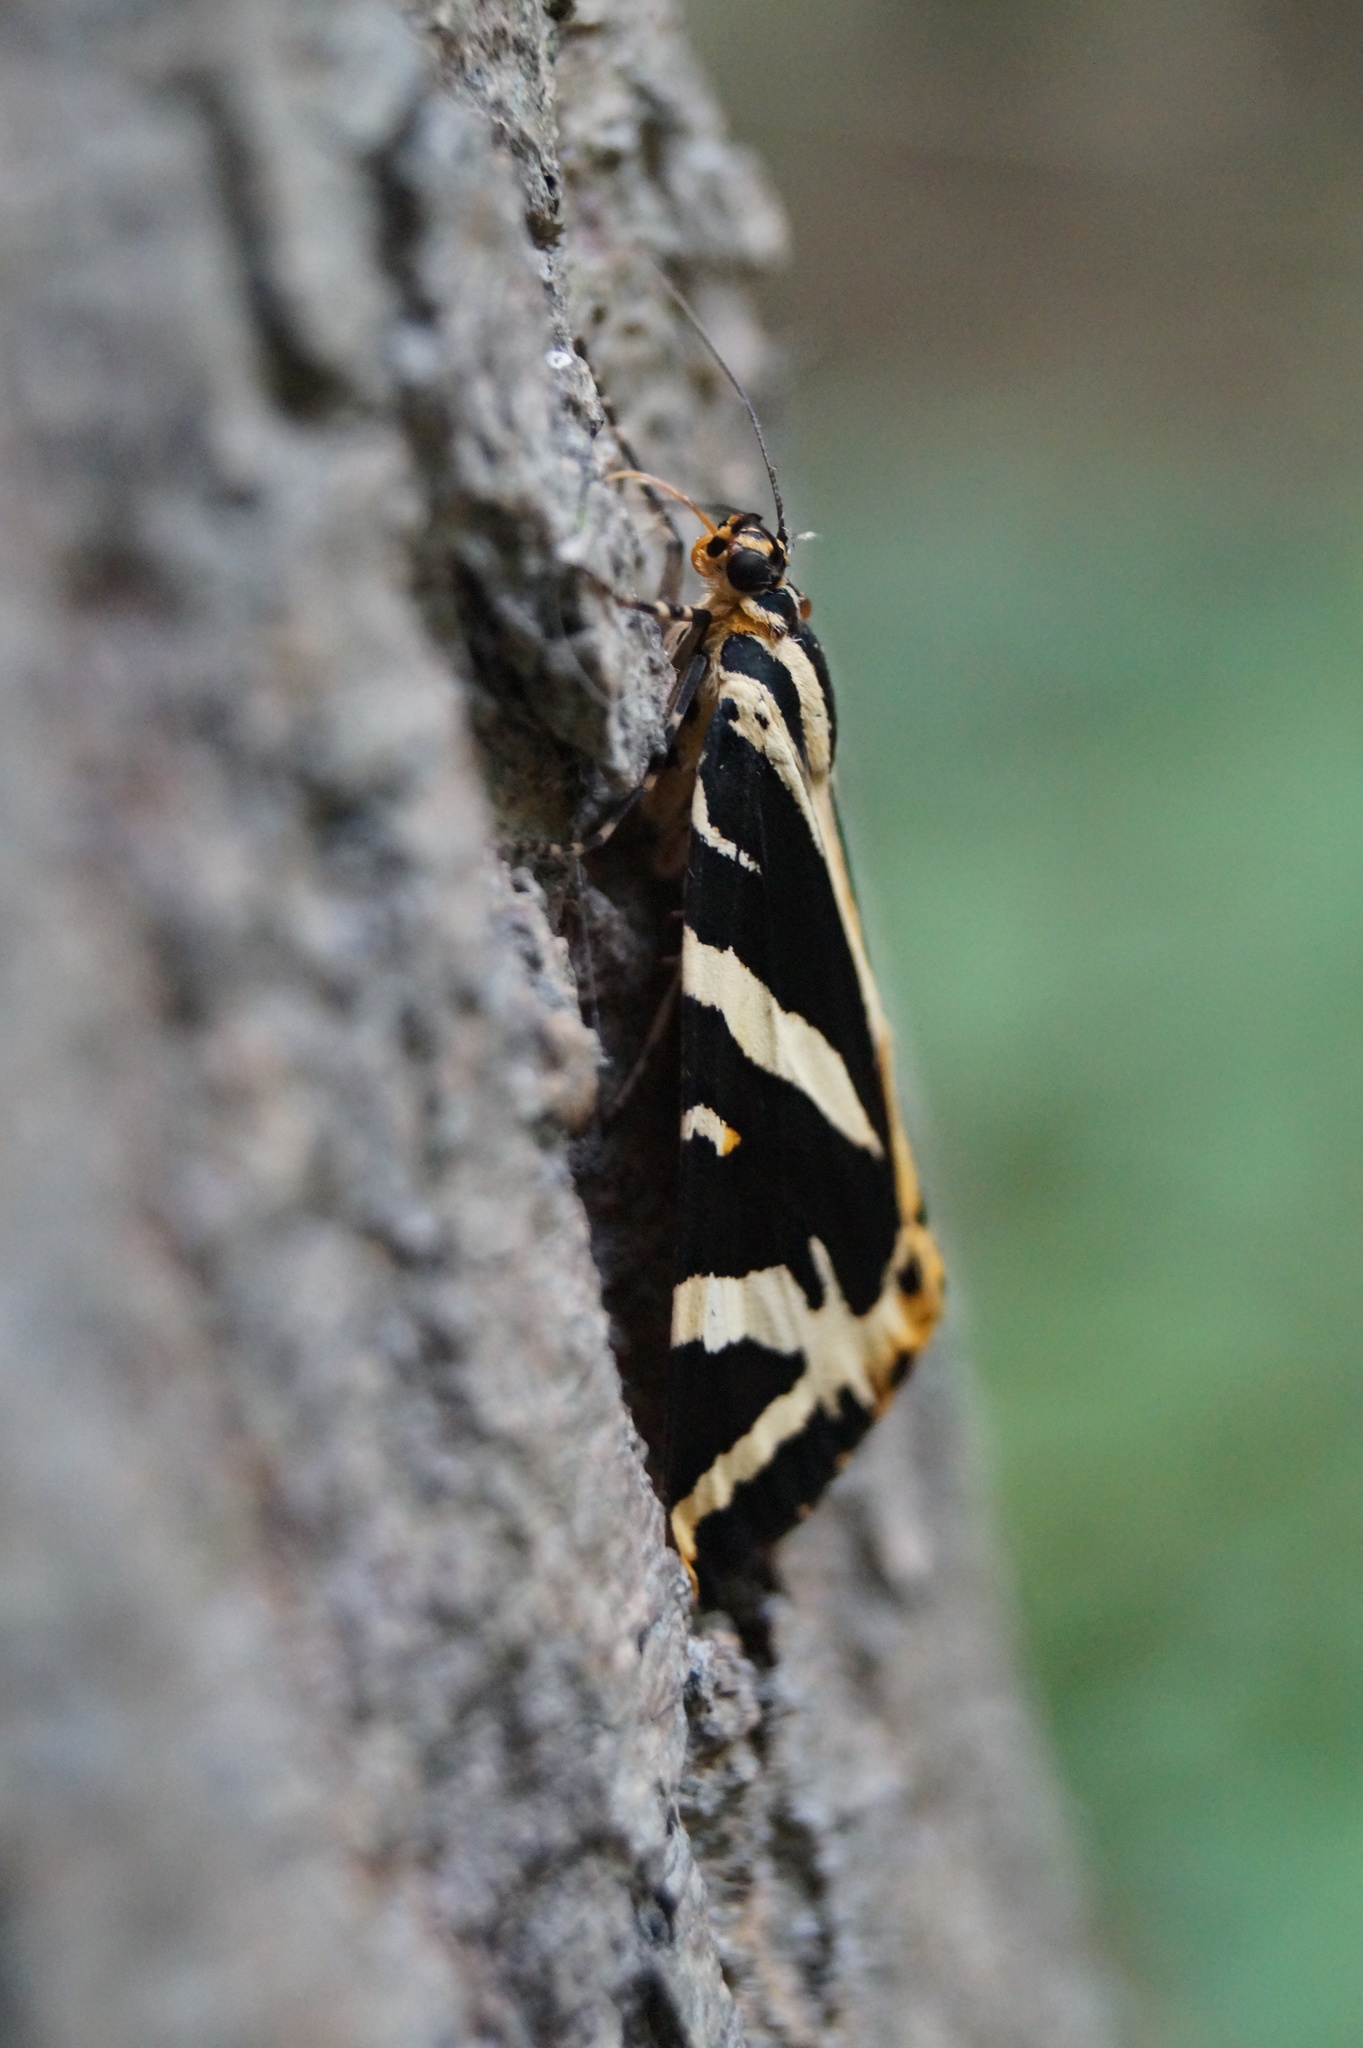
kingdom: Animalia
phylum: Arthropoda
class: Insecta
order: Lepidoptera
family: Erebidae
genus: Euplagia
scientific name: Euplagia quadripunctaria
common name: Jersey tiger
